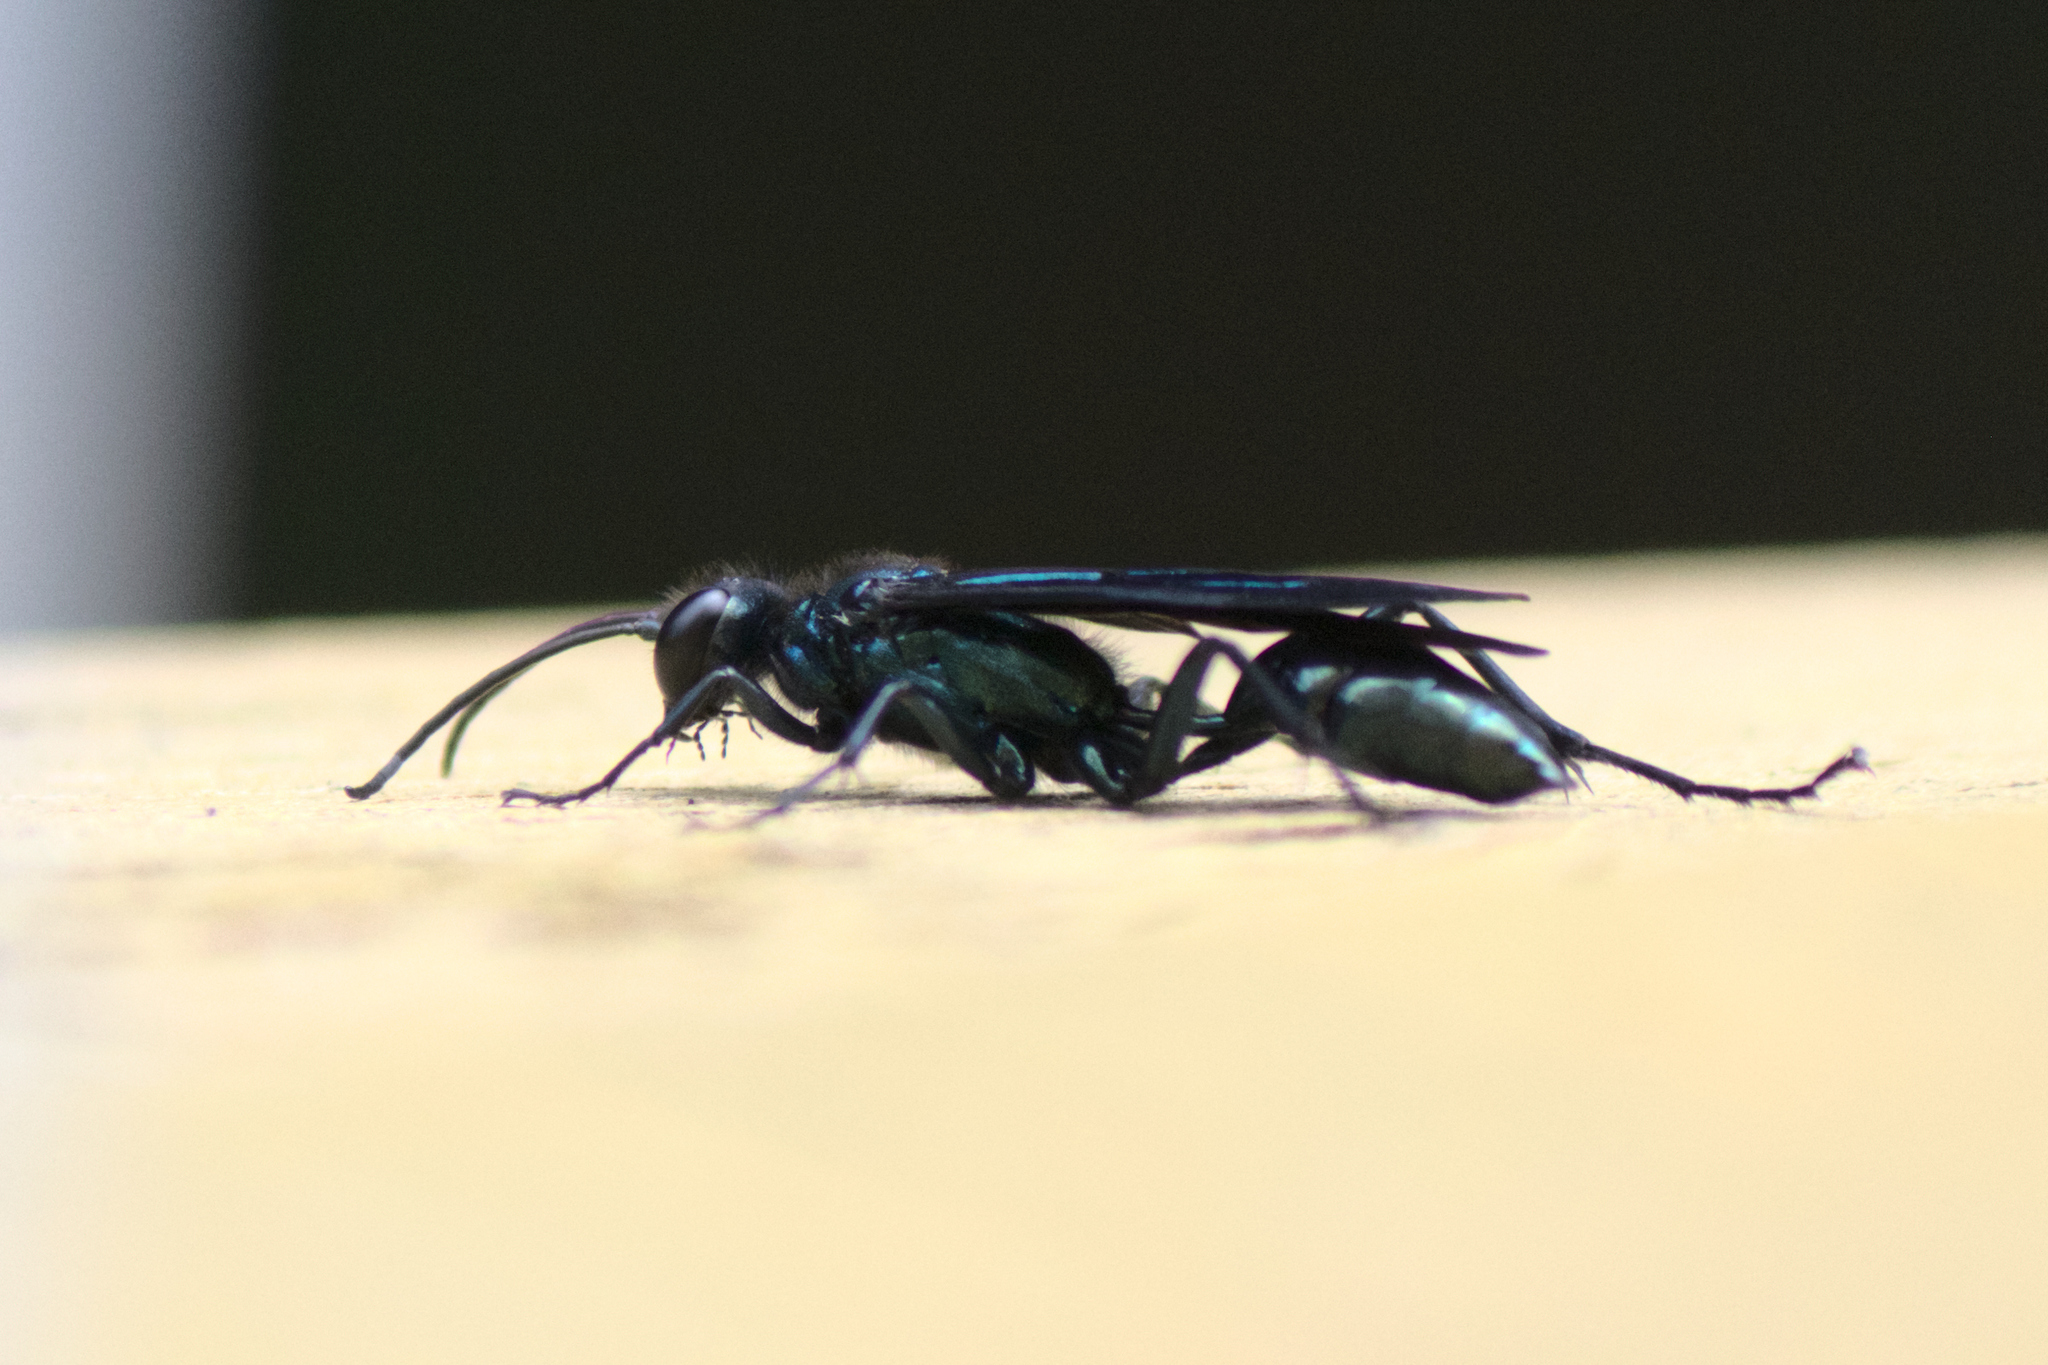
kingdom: Animalia
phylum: Arthropoda
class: Insecta
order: Hymenoptera
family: Sphecidae
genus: Chalybion
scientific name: Chalybion californicum
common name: Mud dauber
